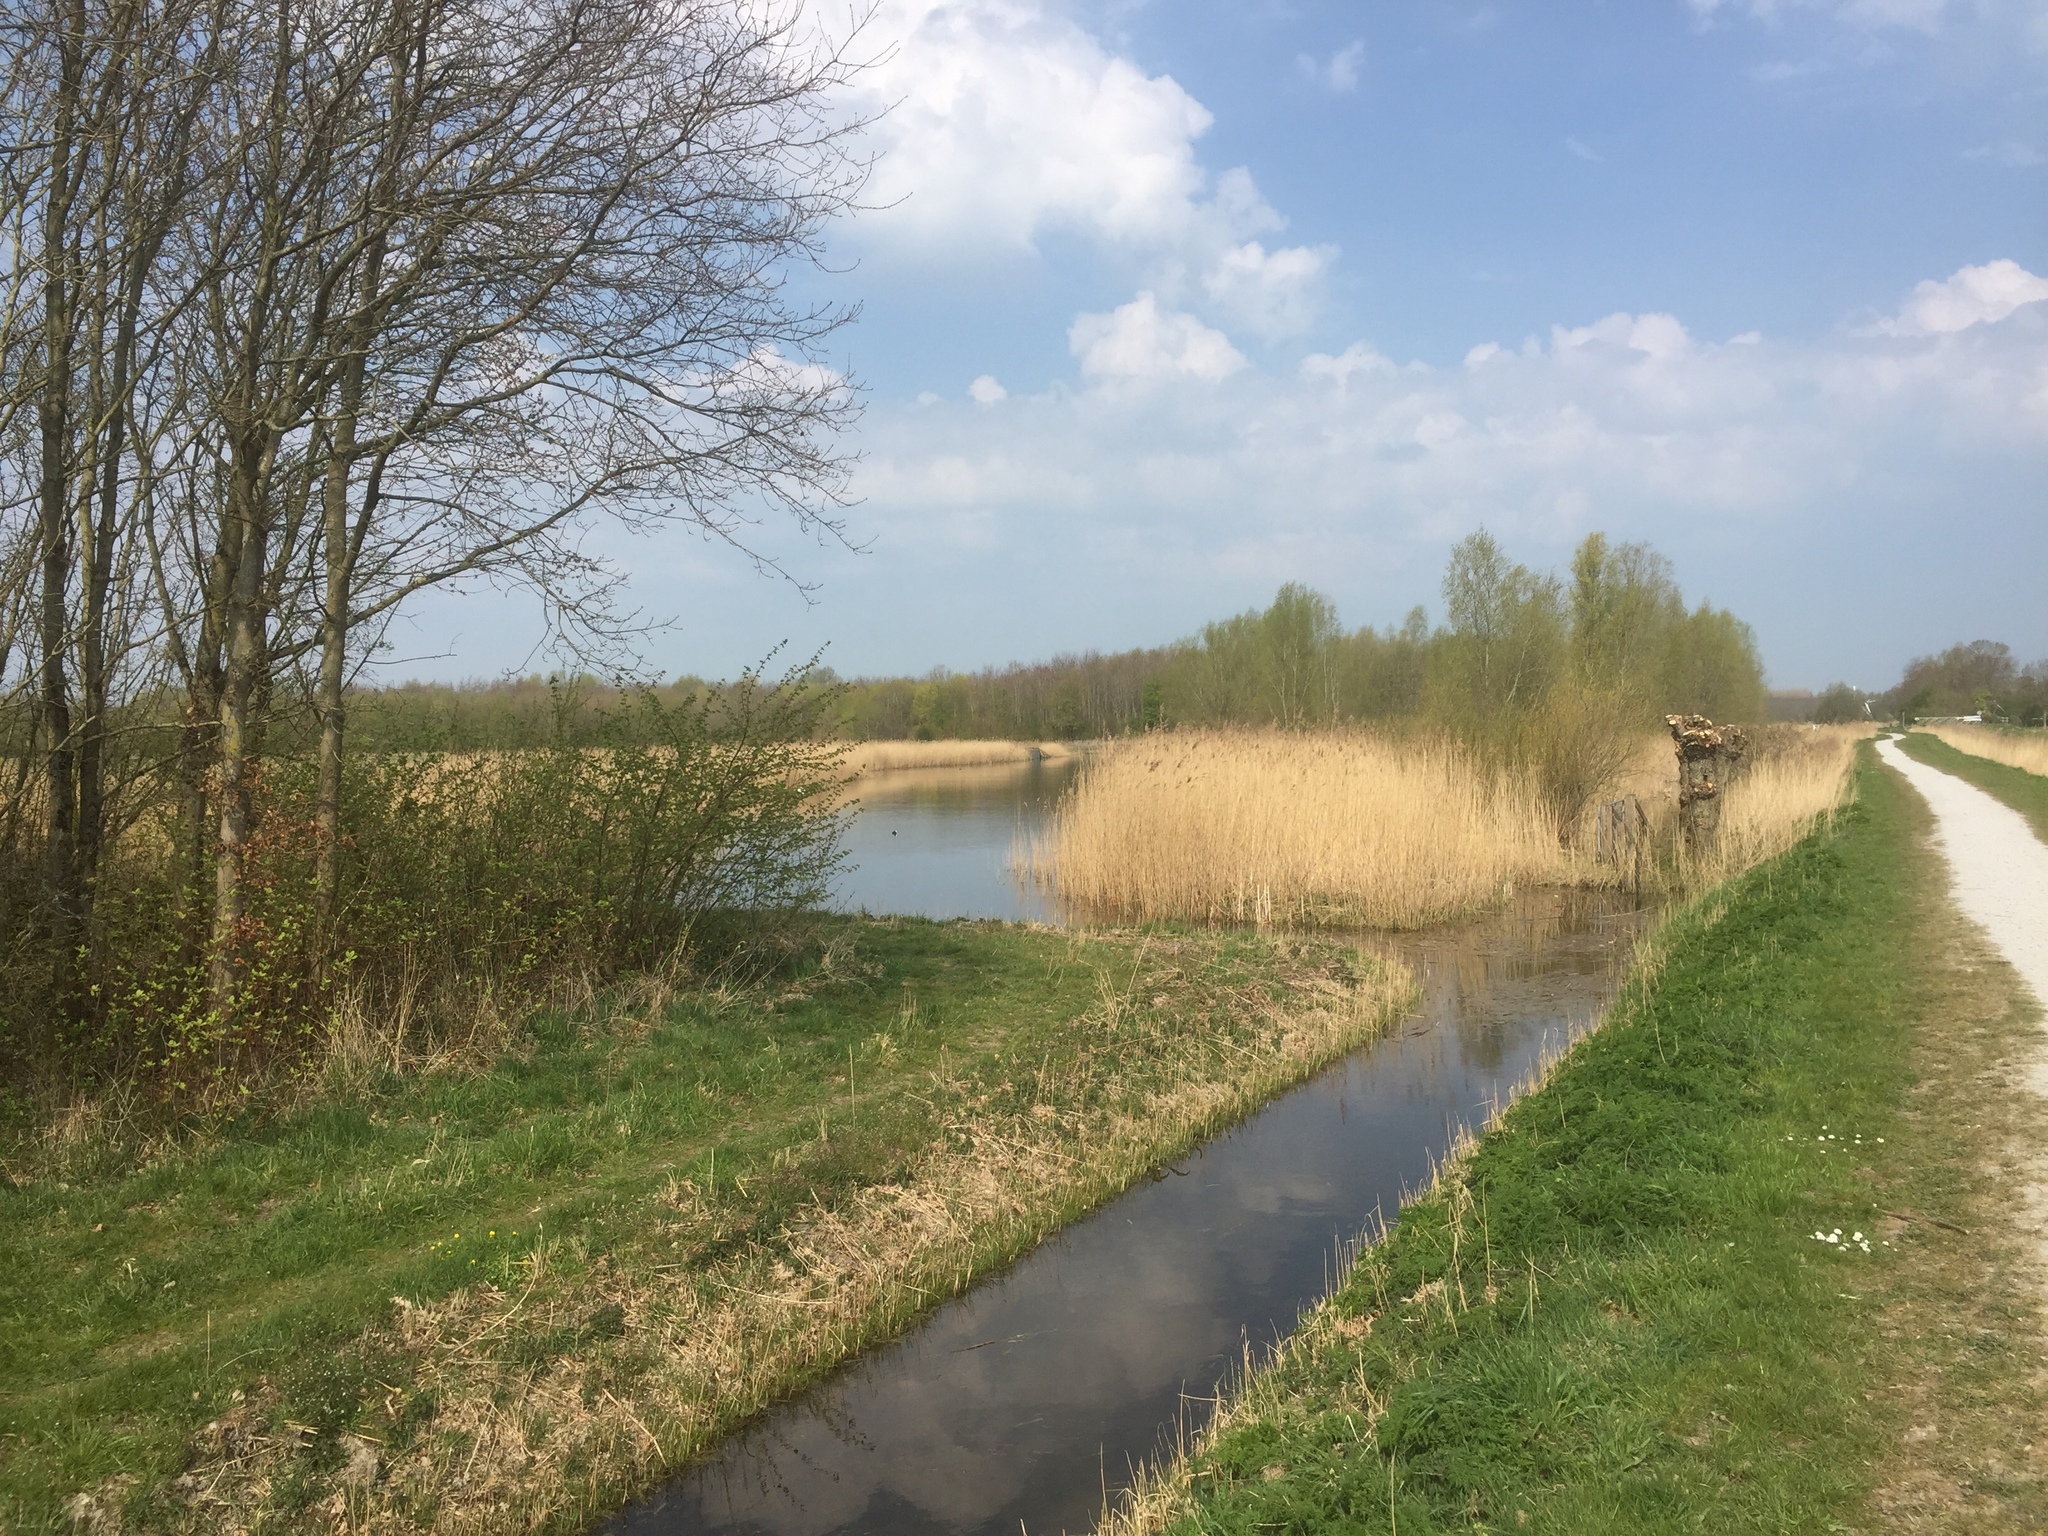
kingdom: Plantae
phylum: Tracheophyta
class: Liliopsida
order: Poales
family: Poaceae
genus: Phragmites
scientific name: Phragmites australis
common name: Common reed
